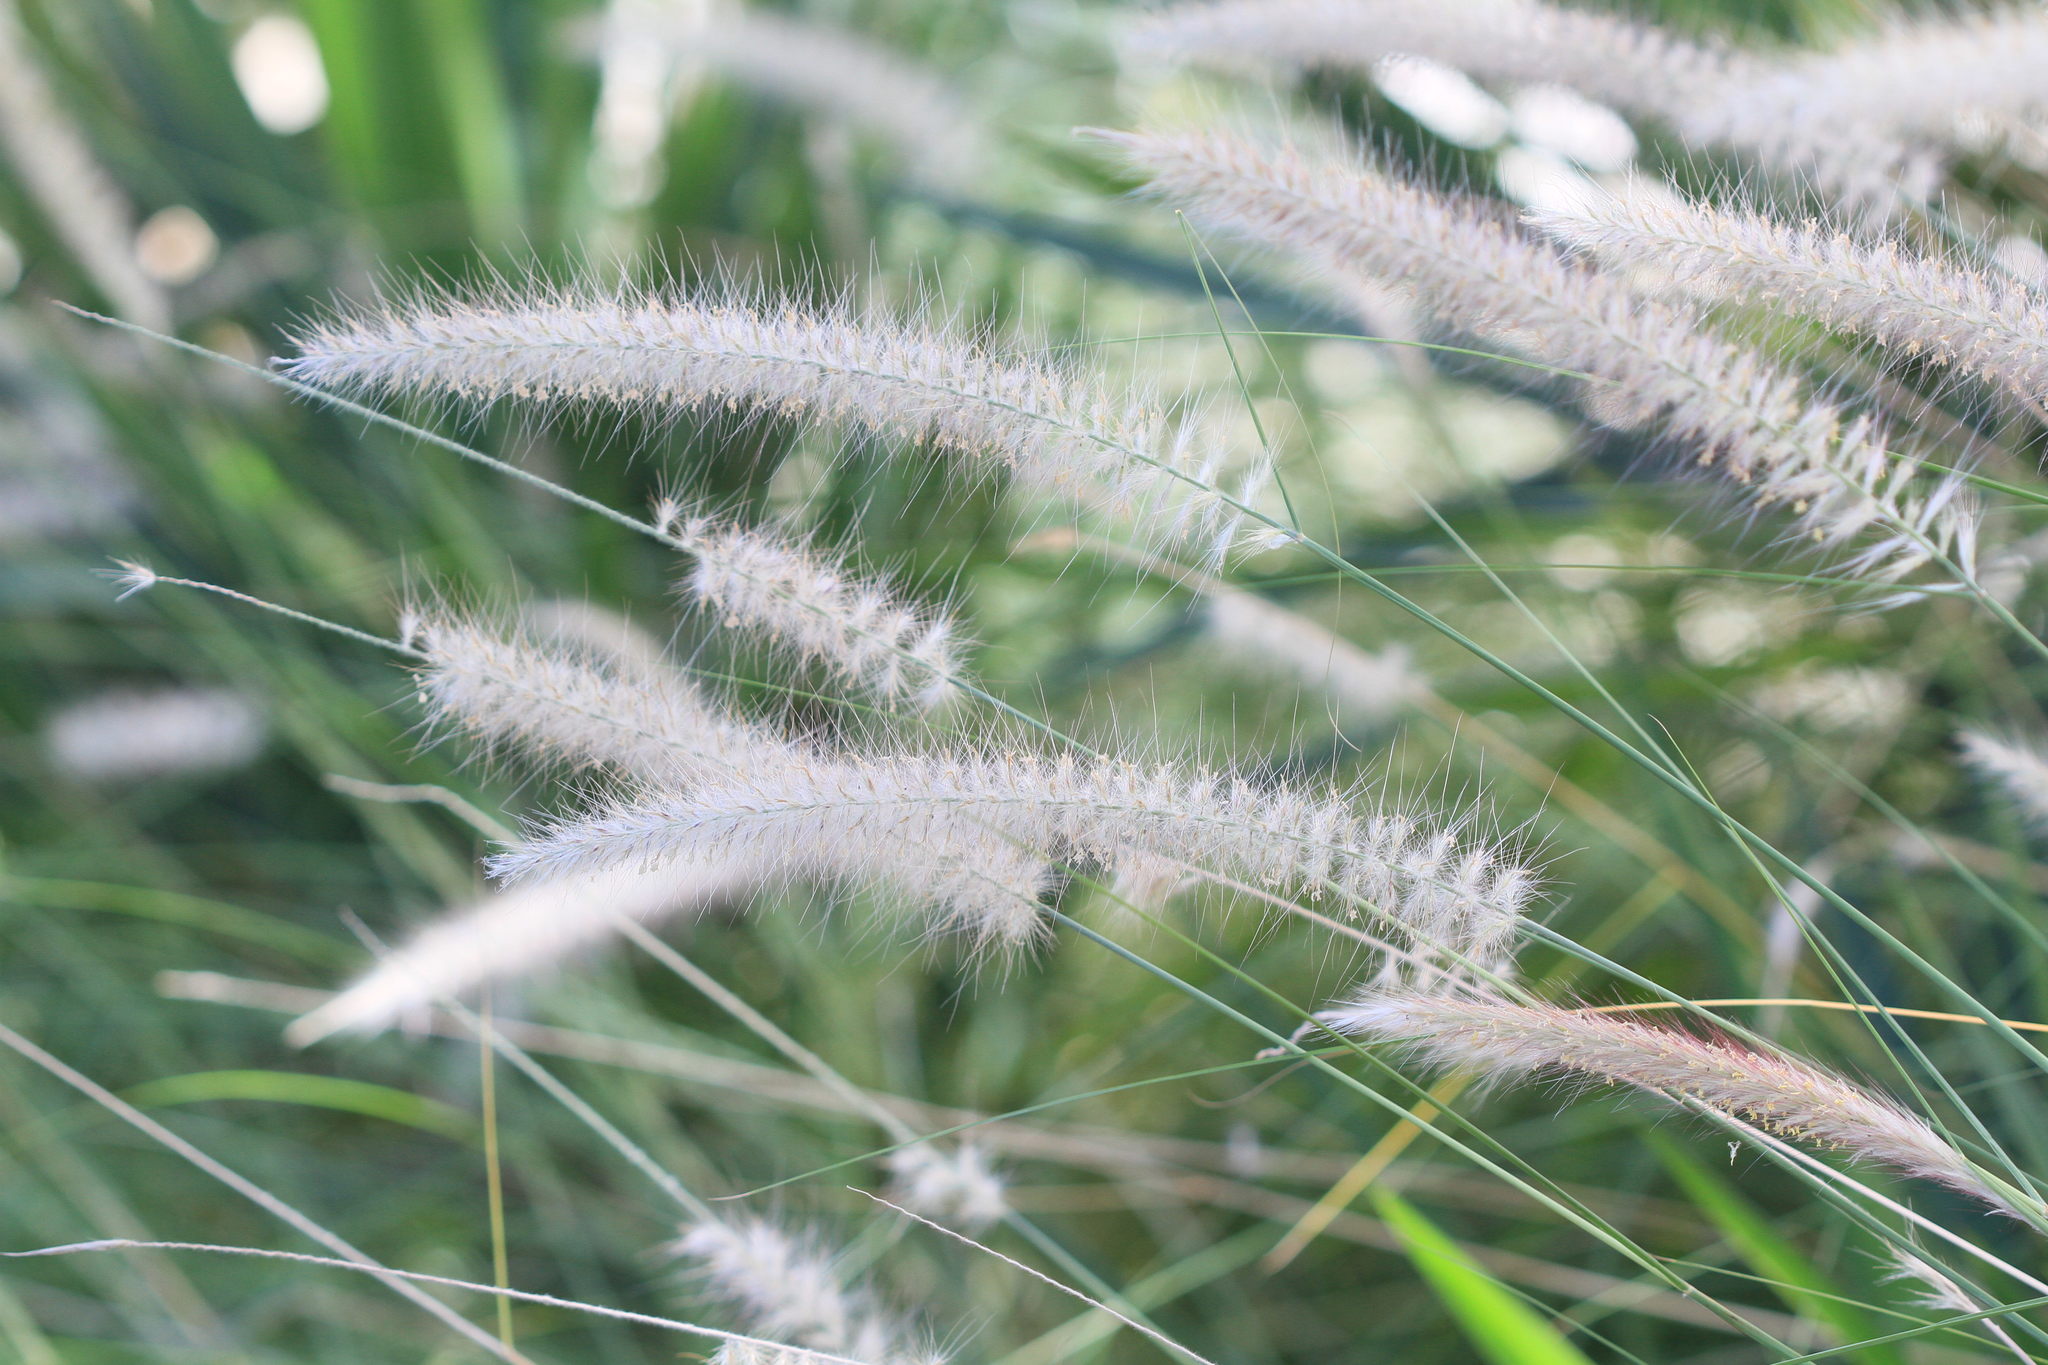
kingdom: Plantae
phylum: Tracheophyta
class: Liliopsida
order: Poales
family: Poaceae
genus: Cenchrus
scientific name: Cenchrus setaceus
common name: Crimson fountaingrass
